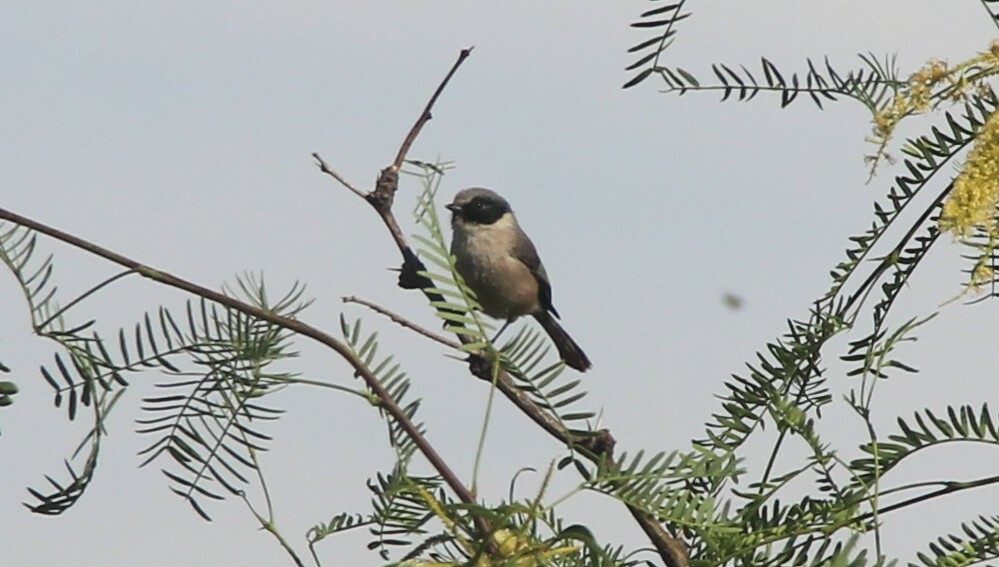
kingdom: Animalia
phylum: Chordata
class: Aves
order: Passeriformes
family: Aegithalidae
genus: Psaltriparus
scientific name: Psaltriparus minimus
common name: American bushtit
